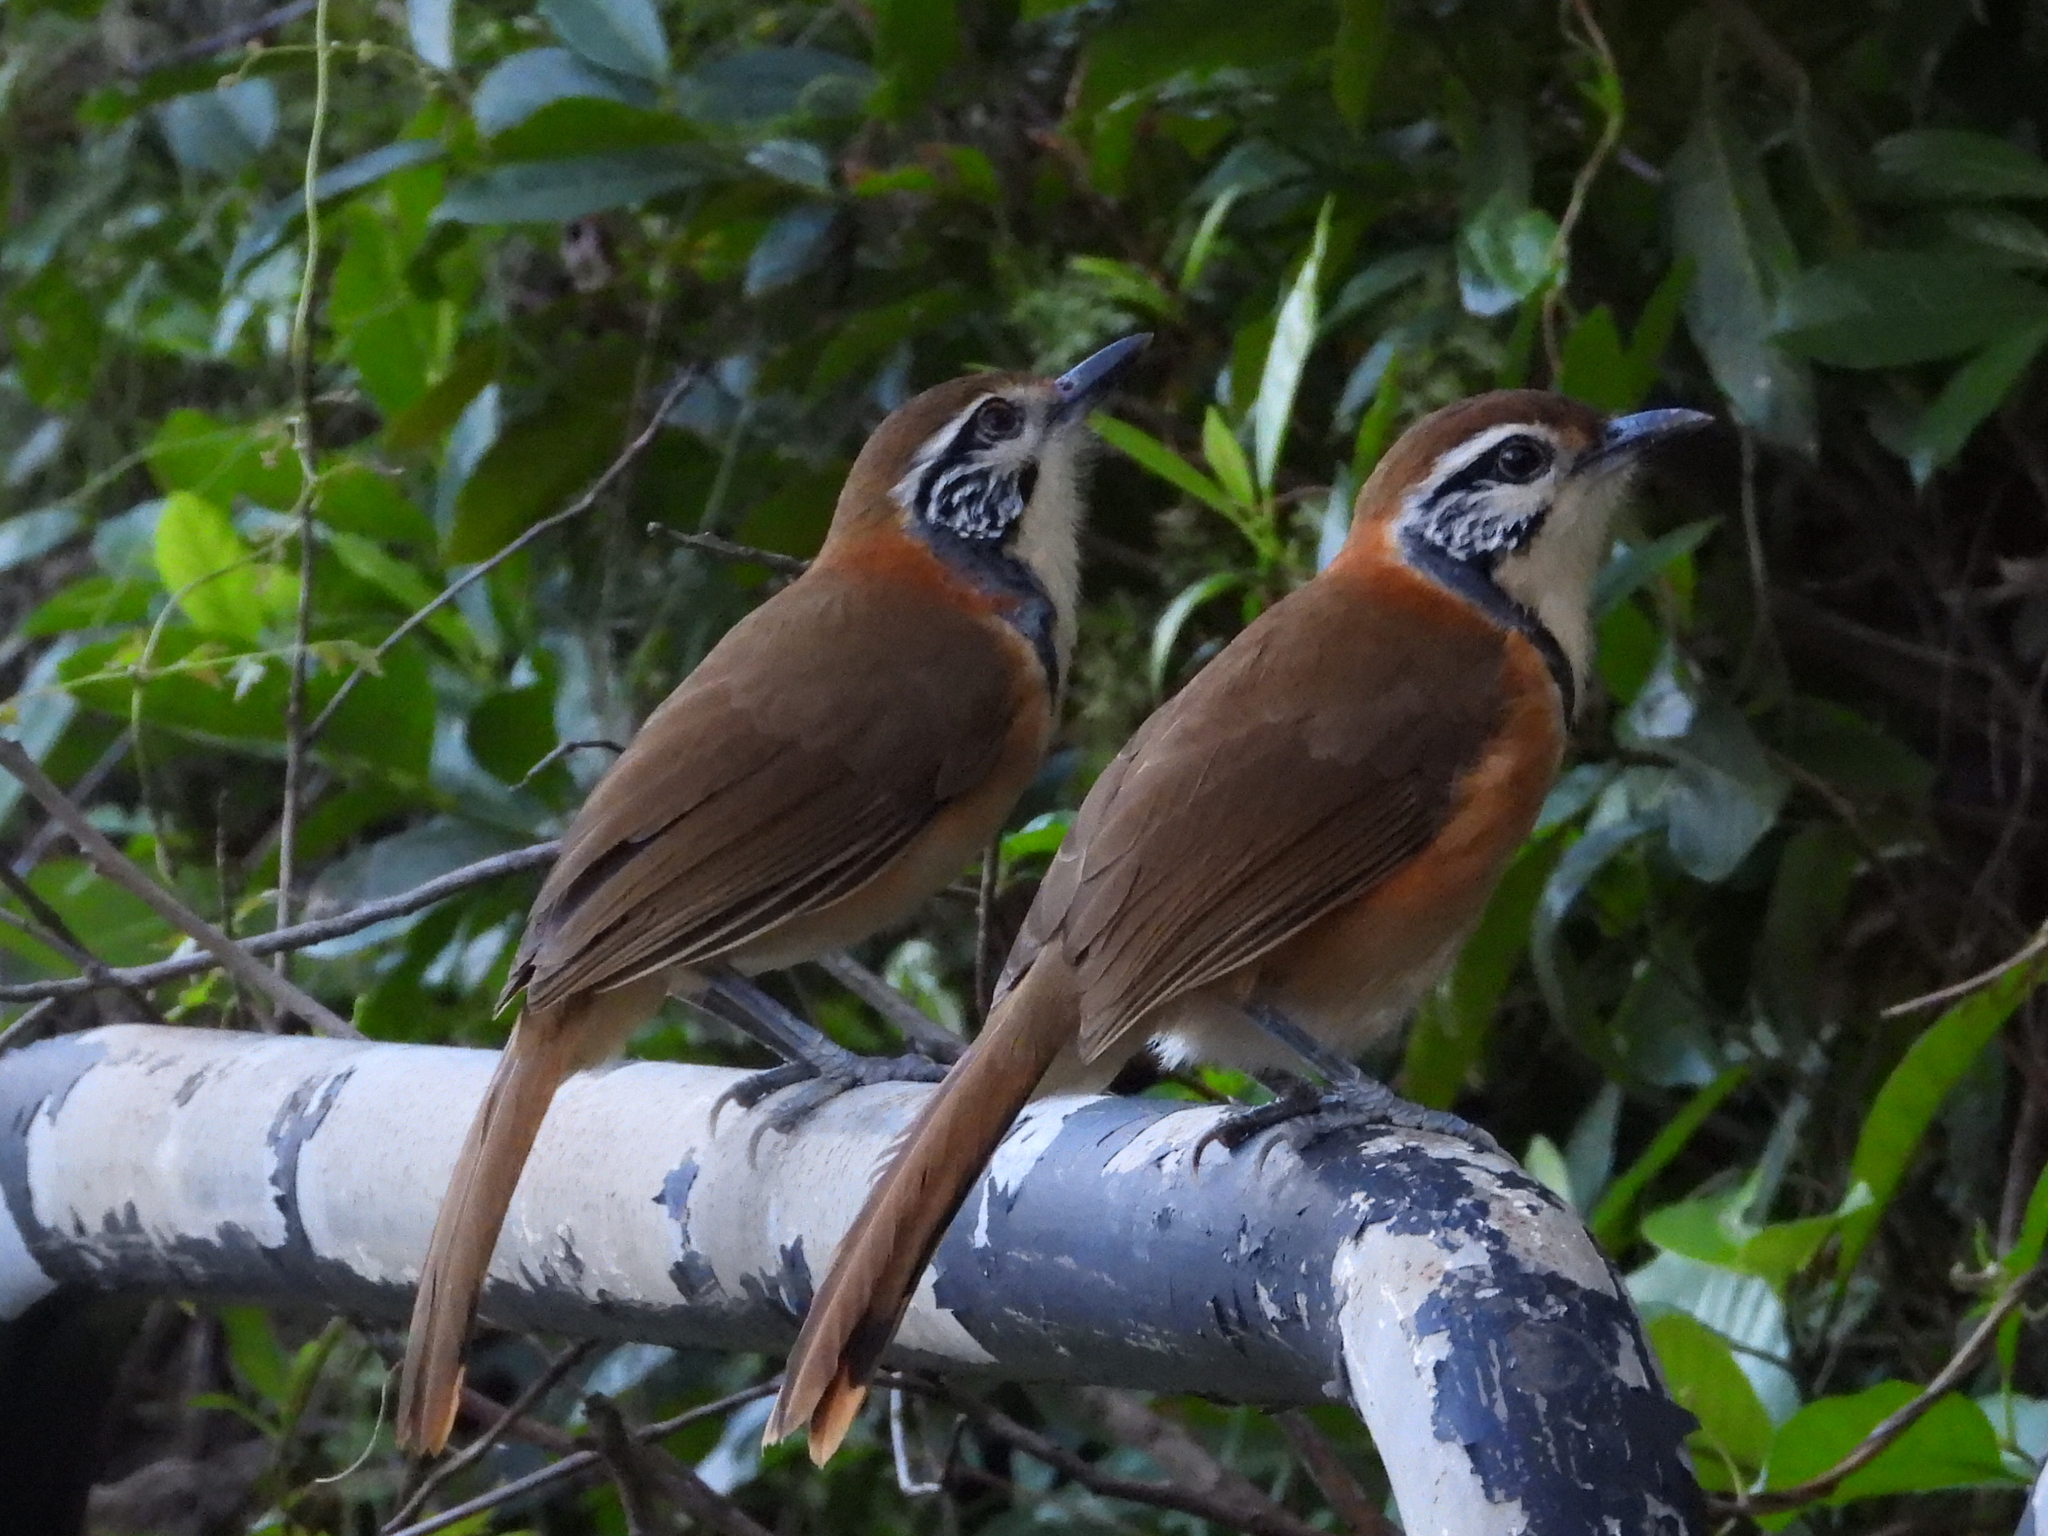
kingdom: Animalia
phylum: Chordata
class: Aves
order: Passeriformes
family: Leiothrichidae
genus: Garrulax
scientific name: Garrulax pectoralis
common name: Greater necklaced laughingthrush
